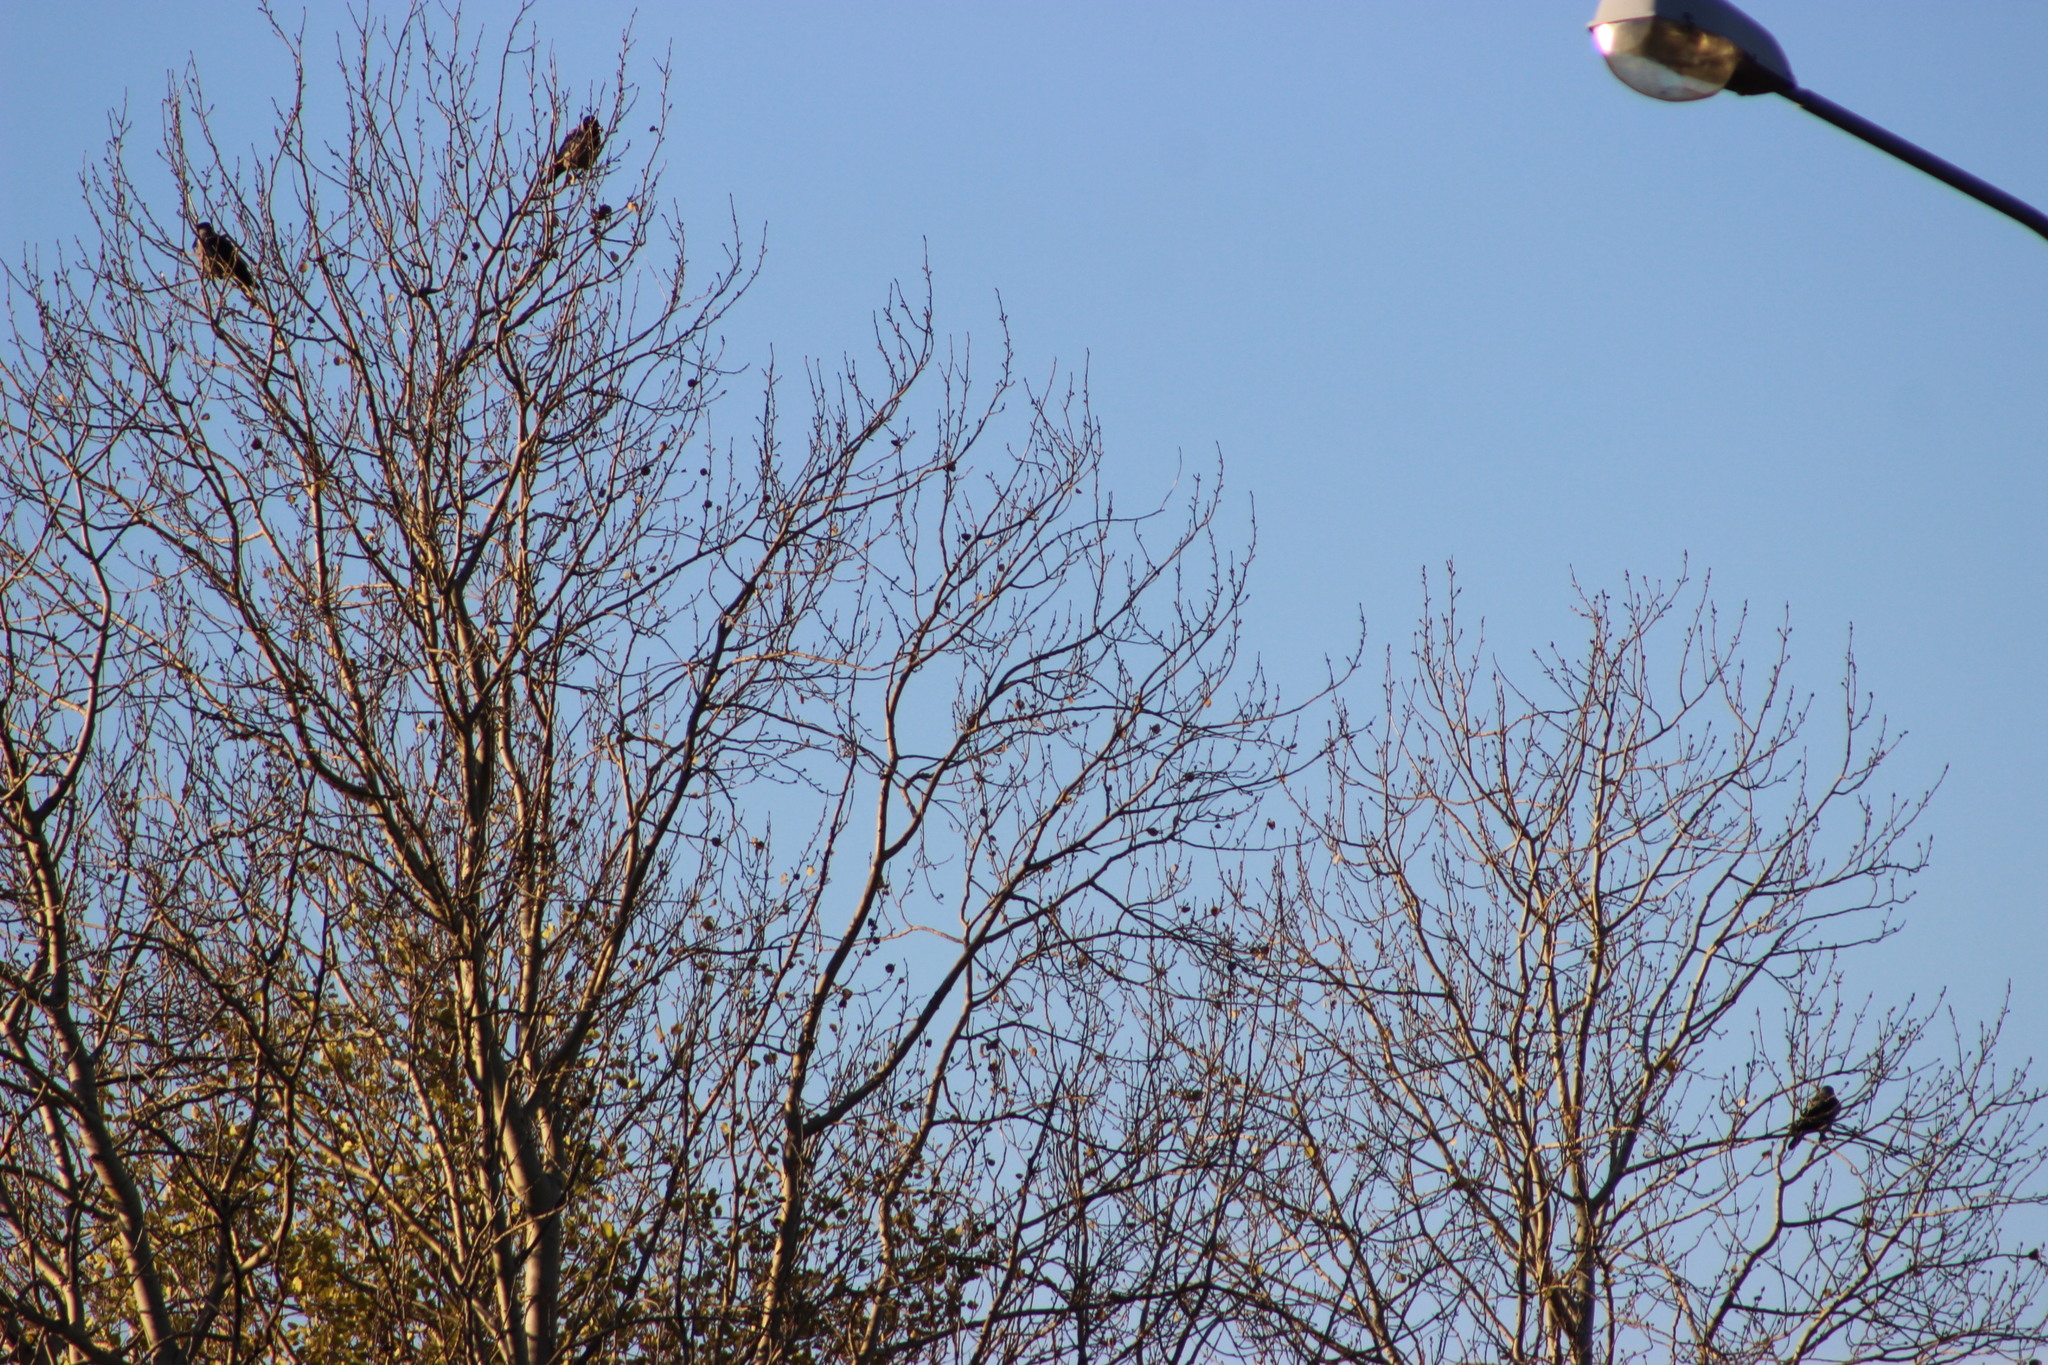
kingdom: Animalia
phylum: Chordata
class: Aves
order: Passeriformes
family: Corvidae
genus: Corvus
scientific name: Corvus cornix
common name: Hooded crow
